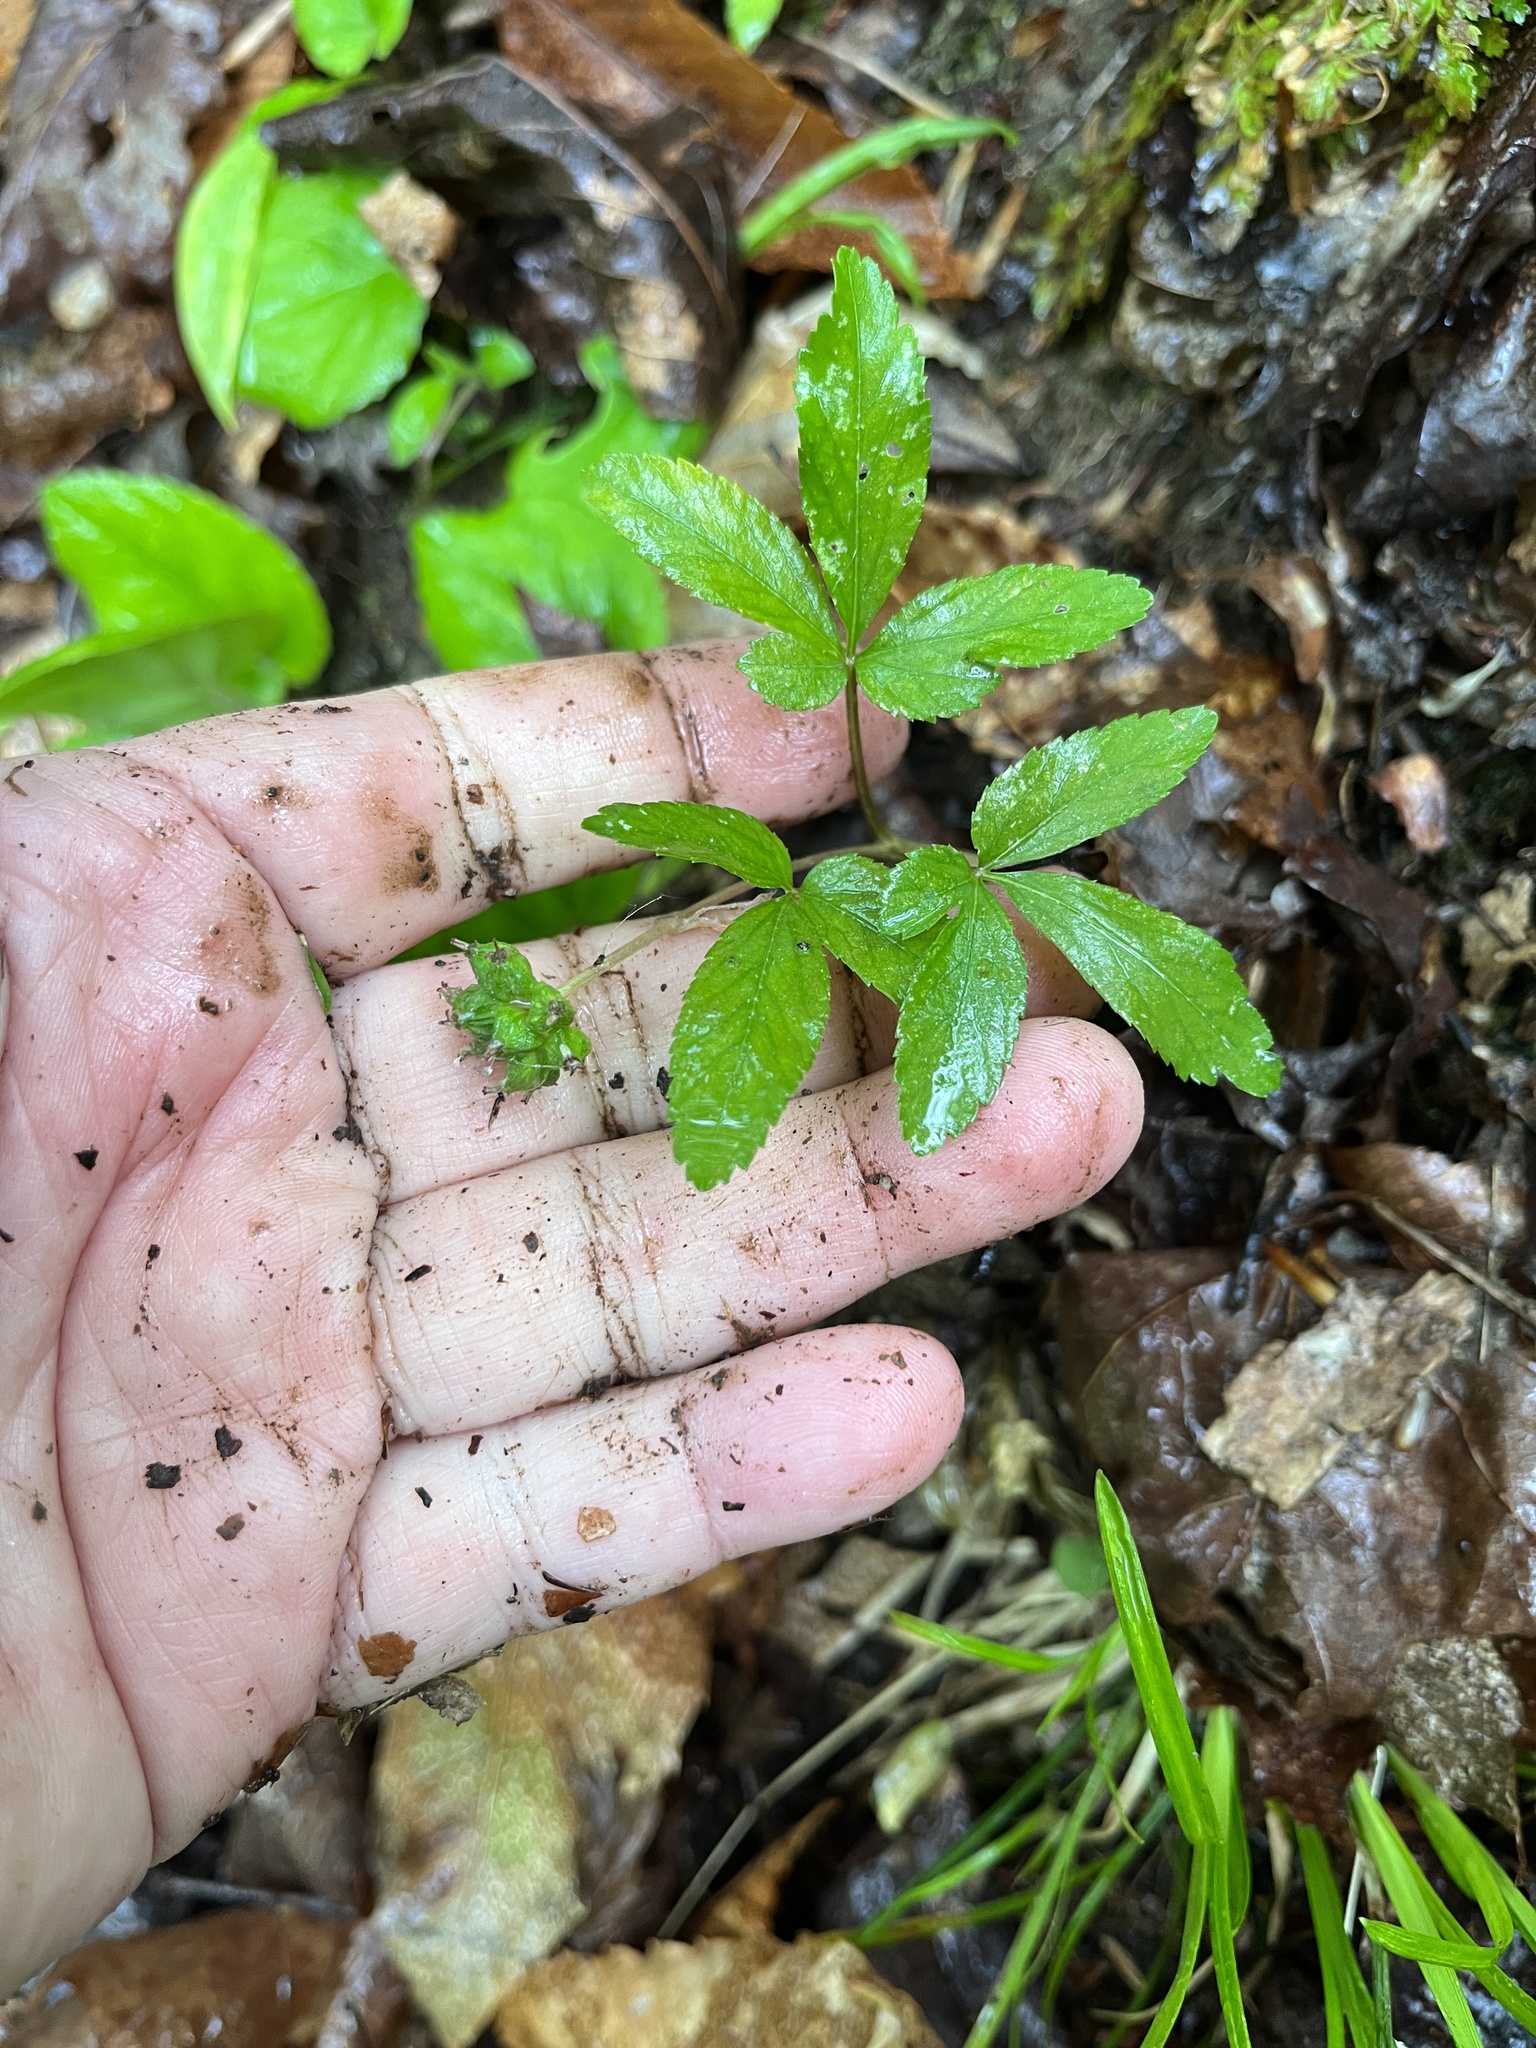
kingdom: Plantae
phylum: Tracheophyta
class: Magnoliopsida
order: Apiales
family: Araliaceae
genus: Panax
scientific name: Panax trifolius
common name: Dwarf ginseng
